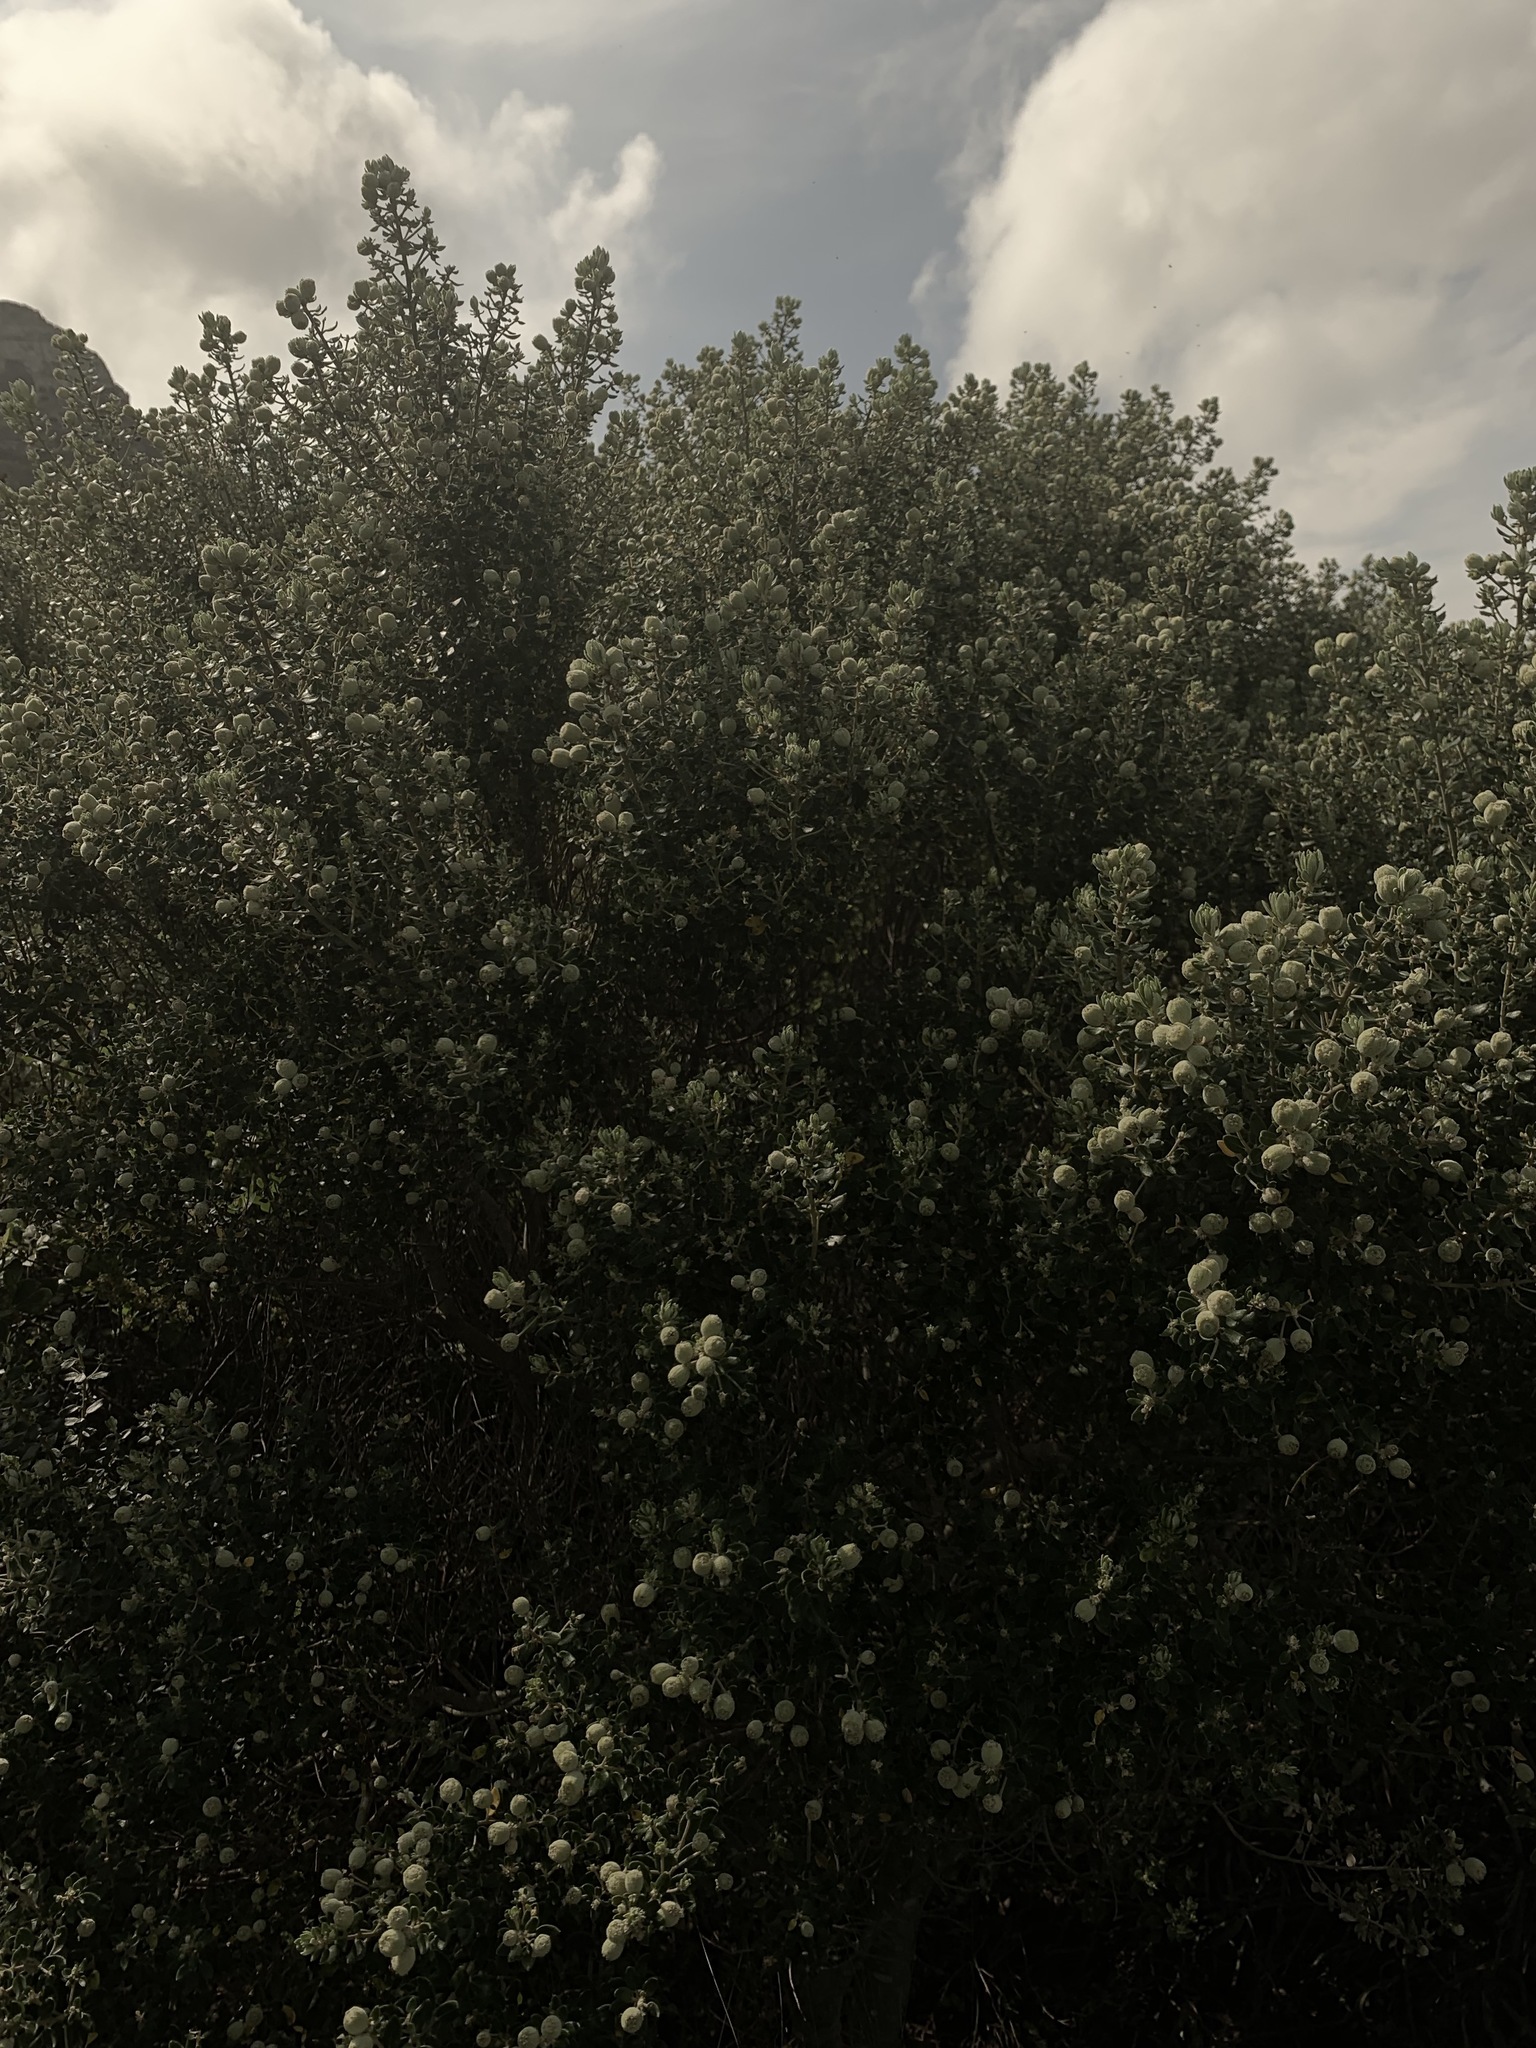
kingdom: Plantae
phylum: Tracheophyta
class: Magnoliopsida
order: Rosales
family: Rhamnaceae
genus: Phylica
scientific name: Phylica buxifolia
